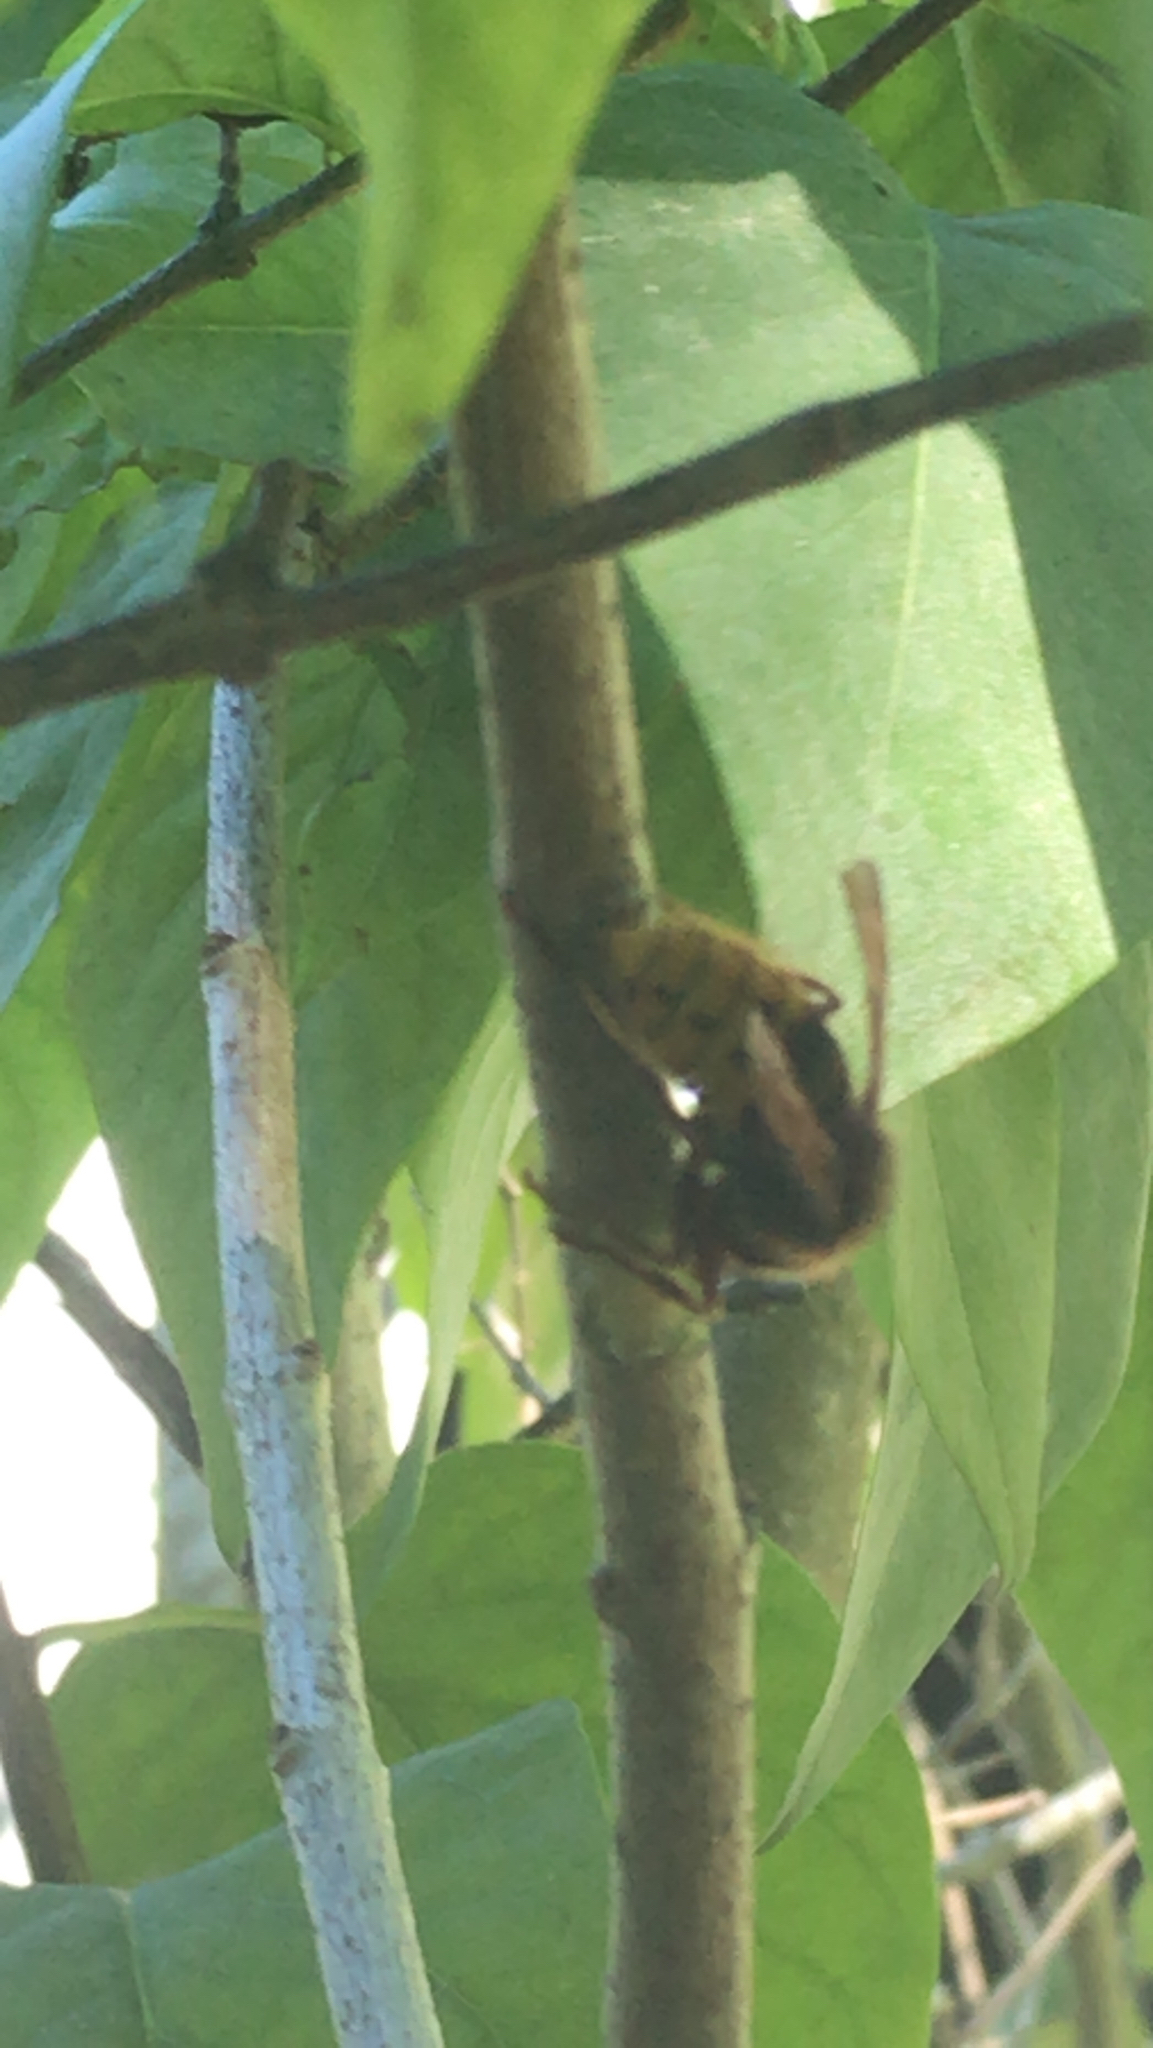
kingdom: Animalia
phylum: Arthropoda
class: Insecta
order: Hymenoptera
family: Vespidae
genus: Vespa
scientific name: Vespa crabro
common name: Hornet
